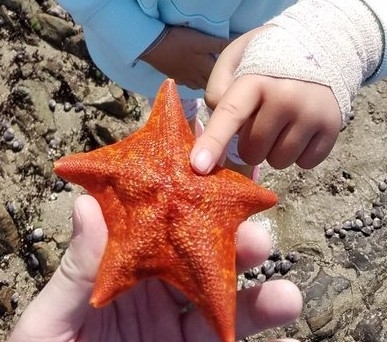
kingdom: Animalia
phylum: Echinodermata
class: Asteroidea
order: Valvatida
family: Asterinidae
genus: Patiria
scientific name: Patiria miniata
